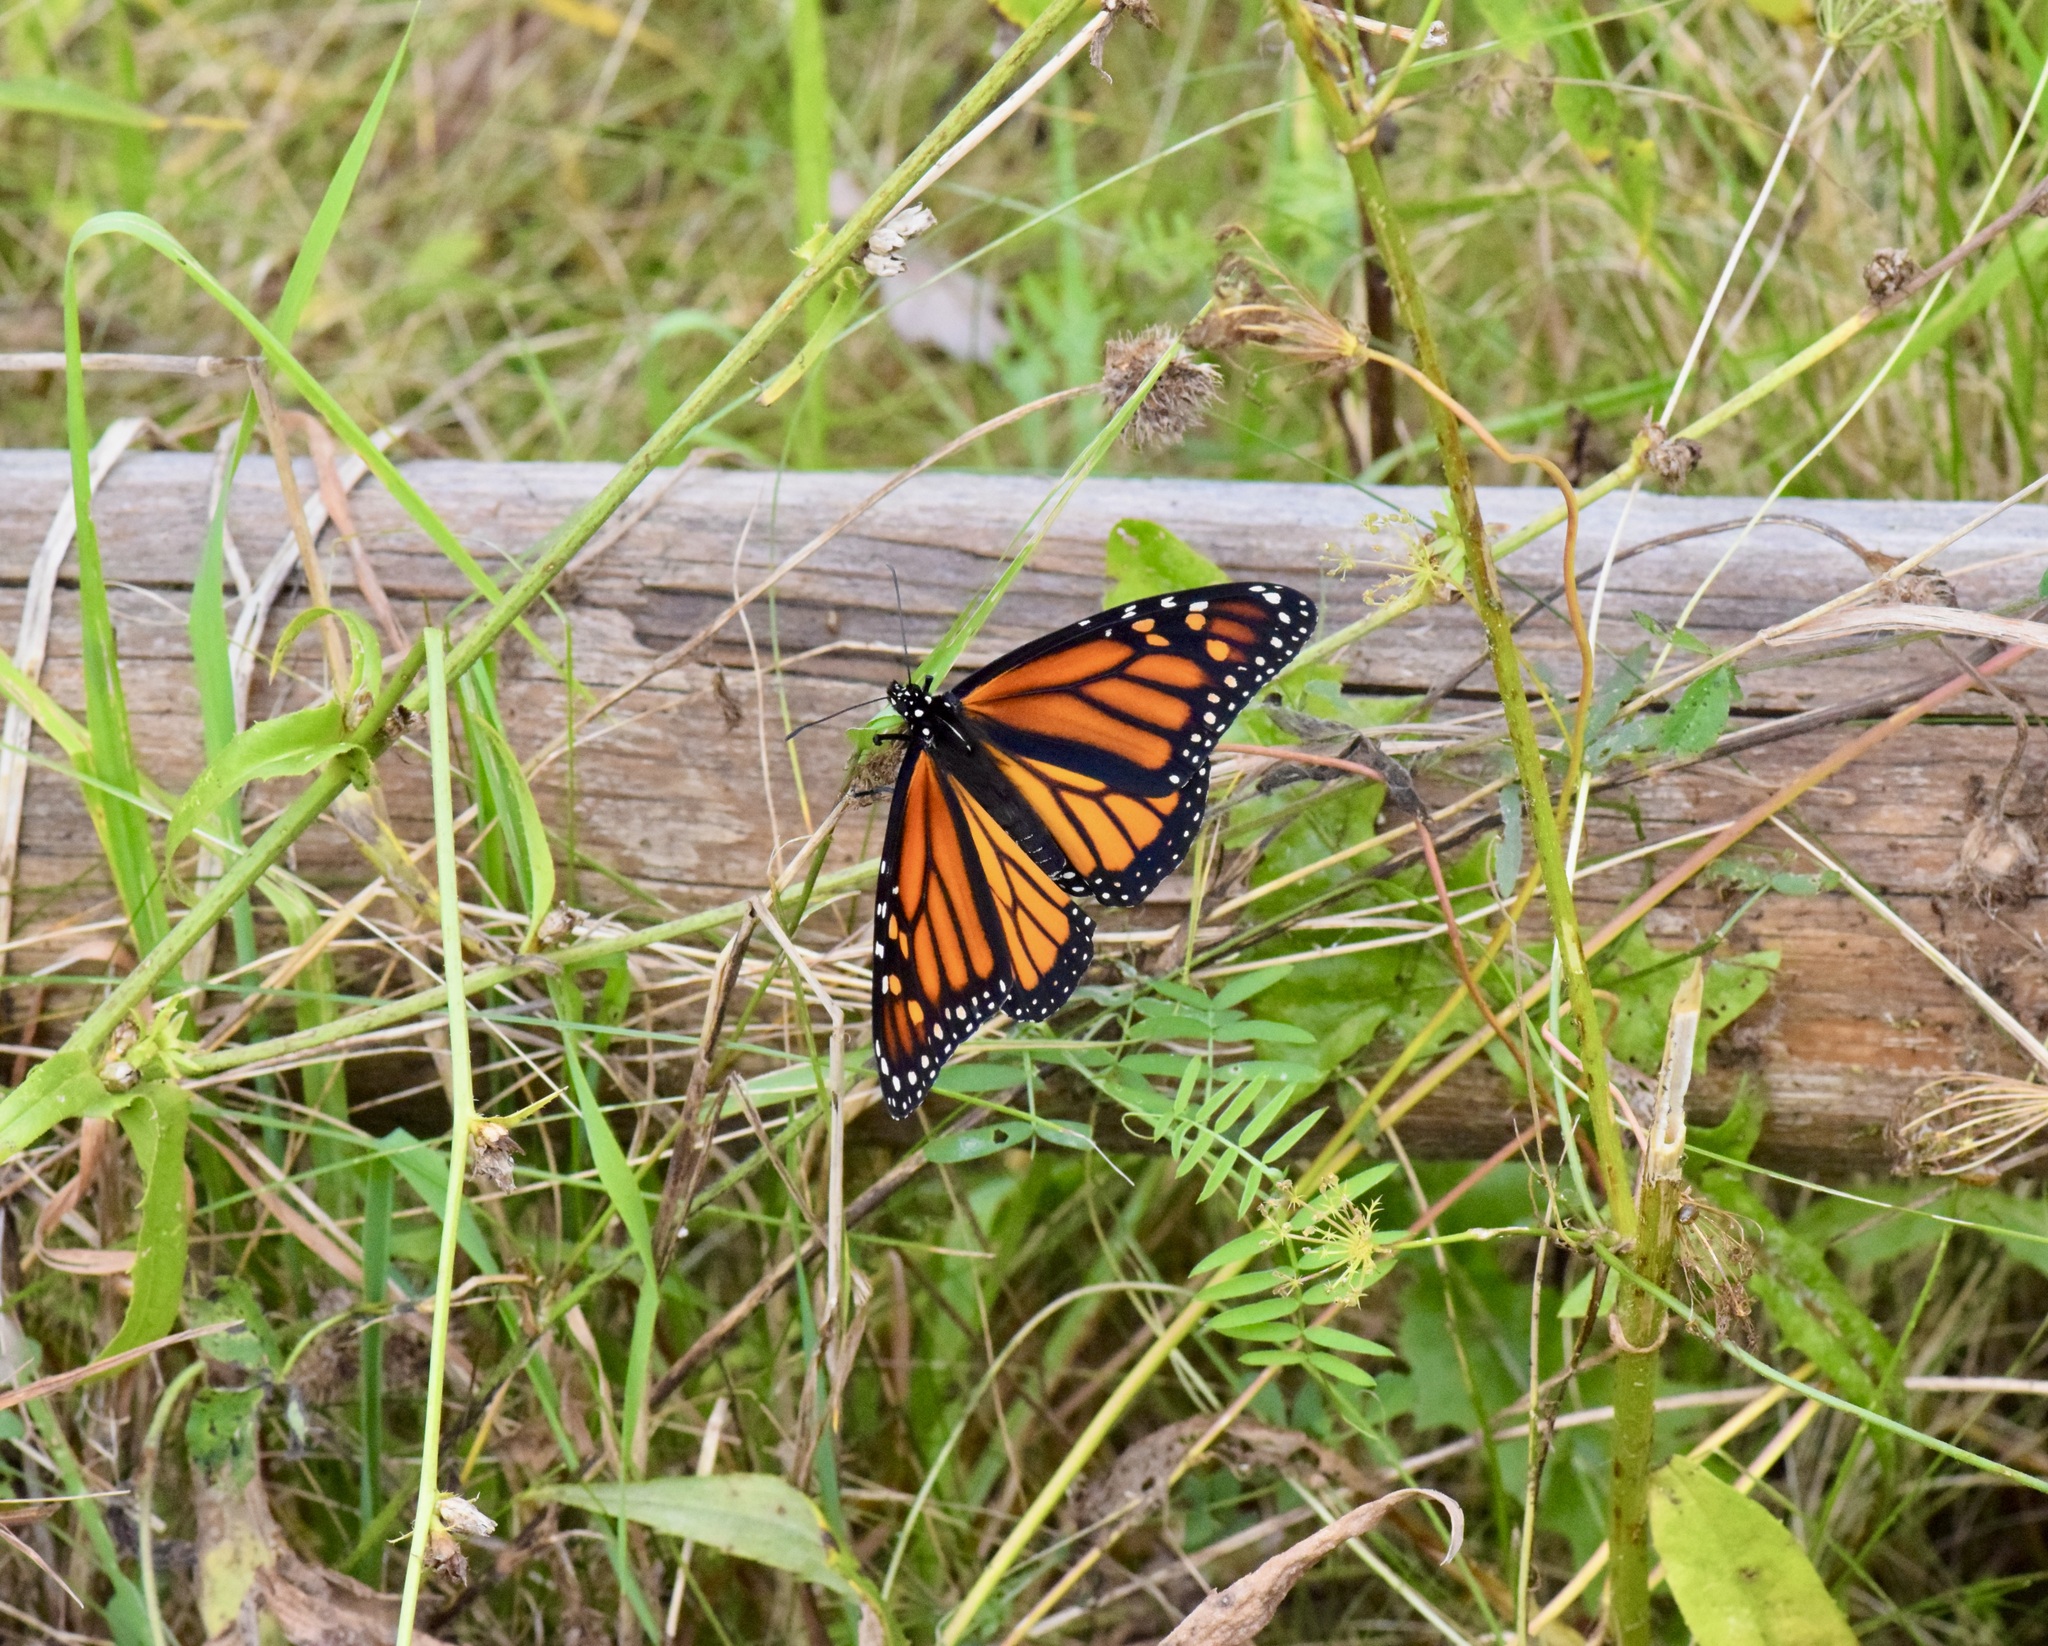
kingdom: Animalia
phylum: Arthropoda
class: Insecta
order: Lepidoptera
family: Nymphalidae
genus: Danaus
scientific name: Danaus plexippus
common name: Monarch
